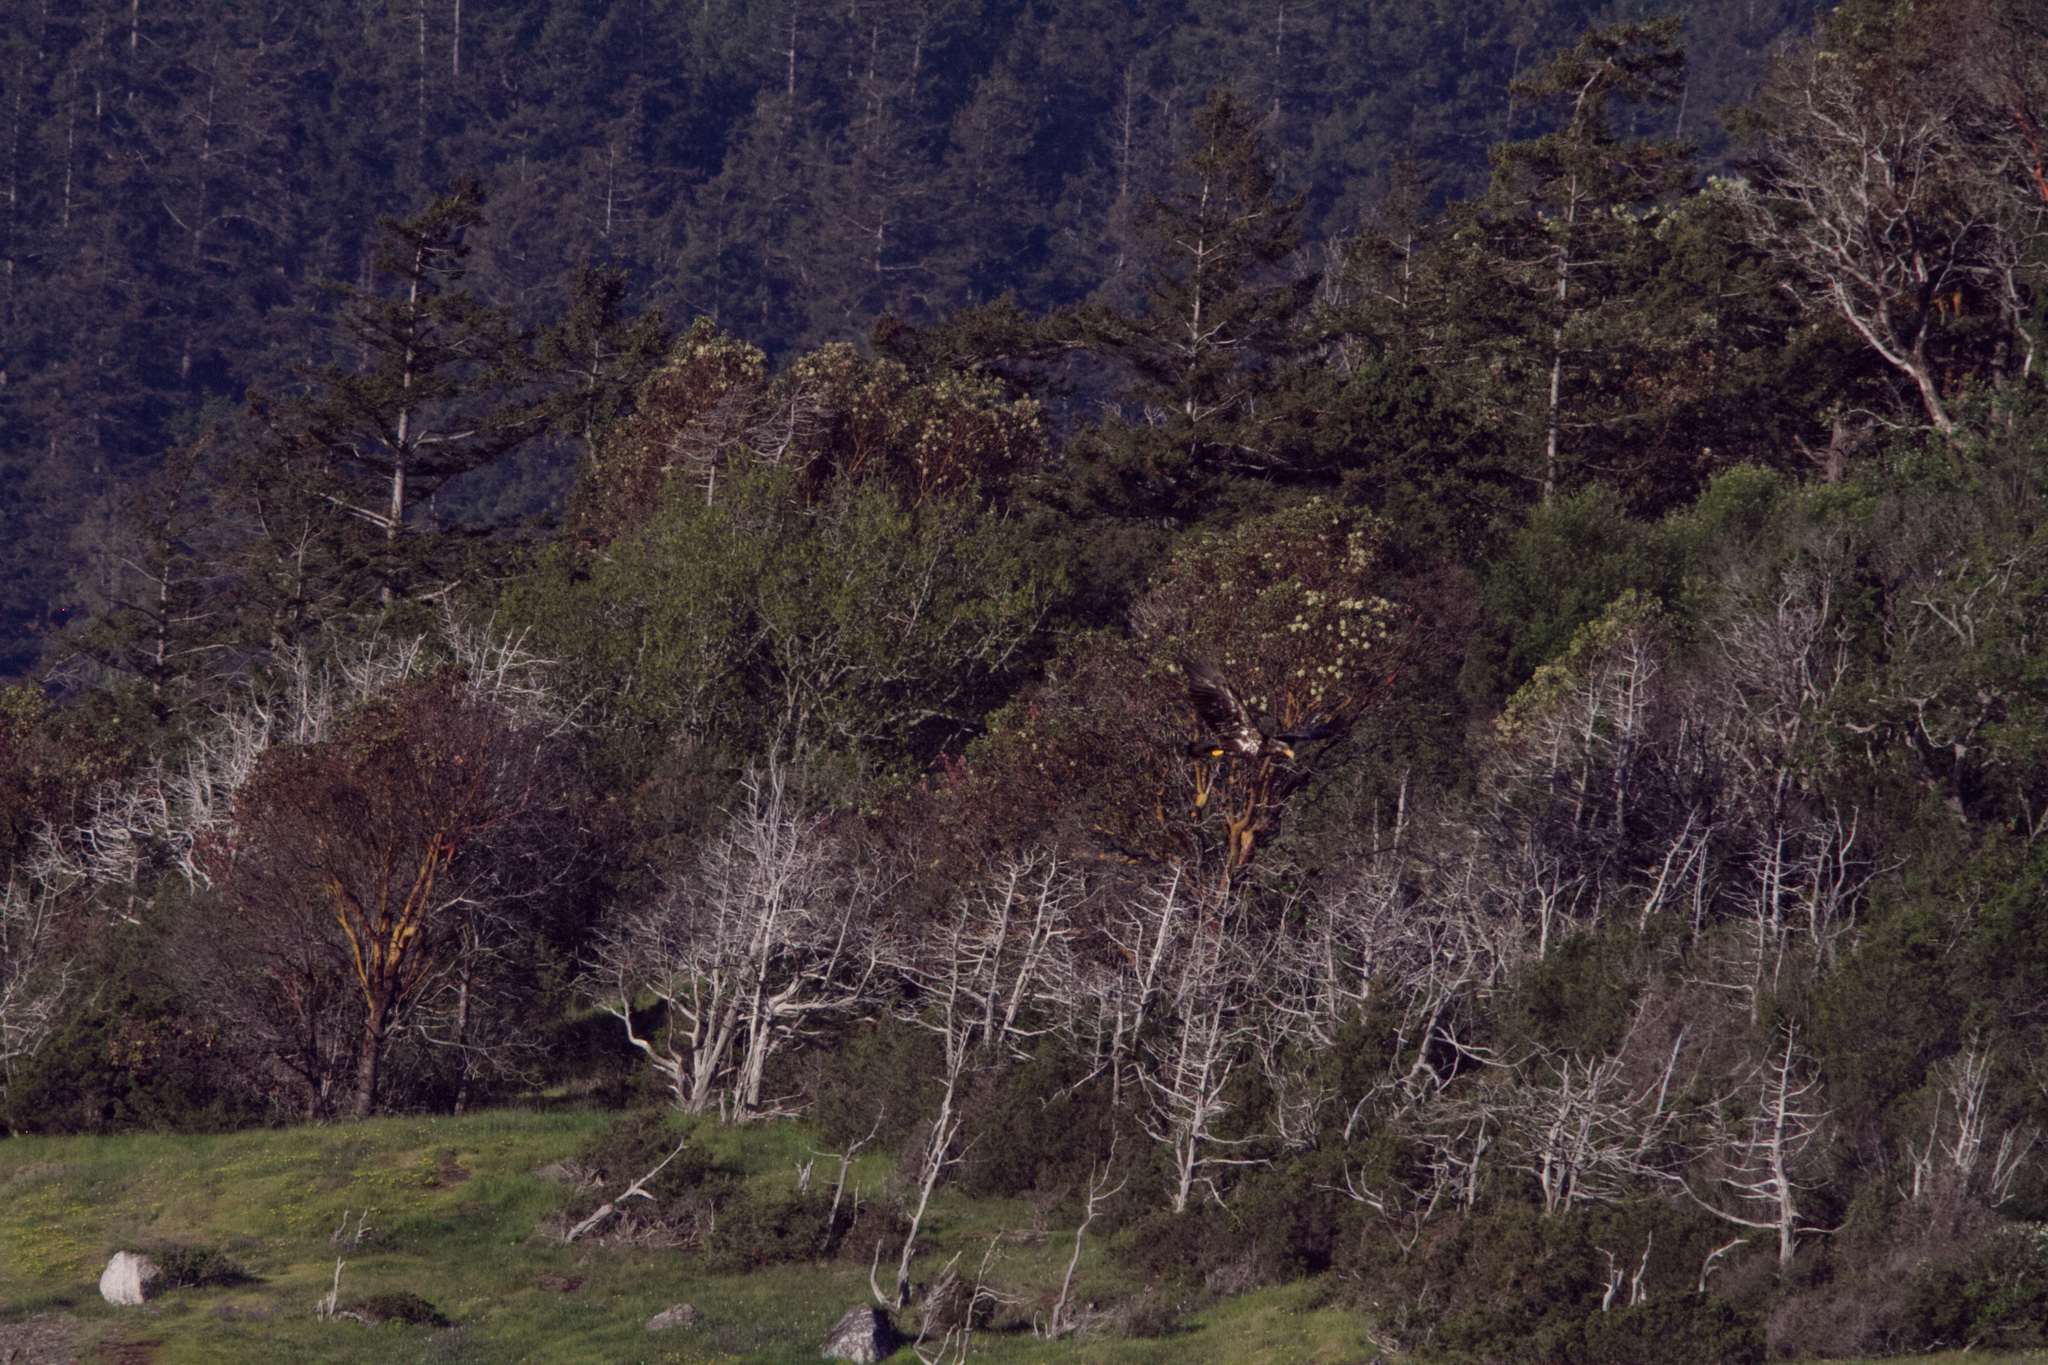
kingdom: Animalia
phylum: Chordata
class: Aves
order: Accipitriformes
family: Accipitridae
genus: Haliaeetus
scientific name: Haliaeetus leucocephalus
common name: Bald eagle
